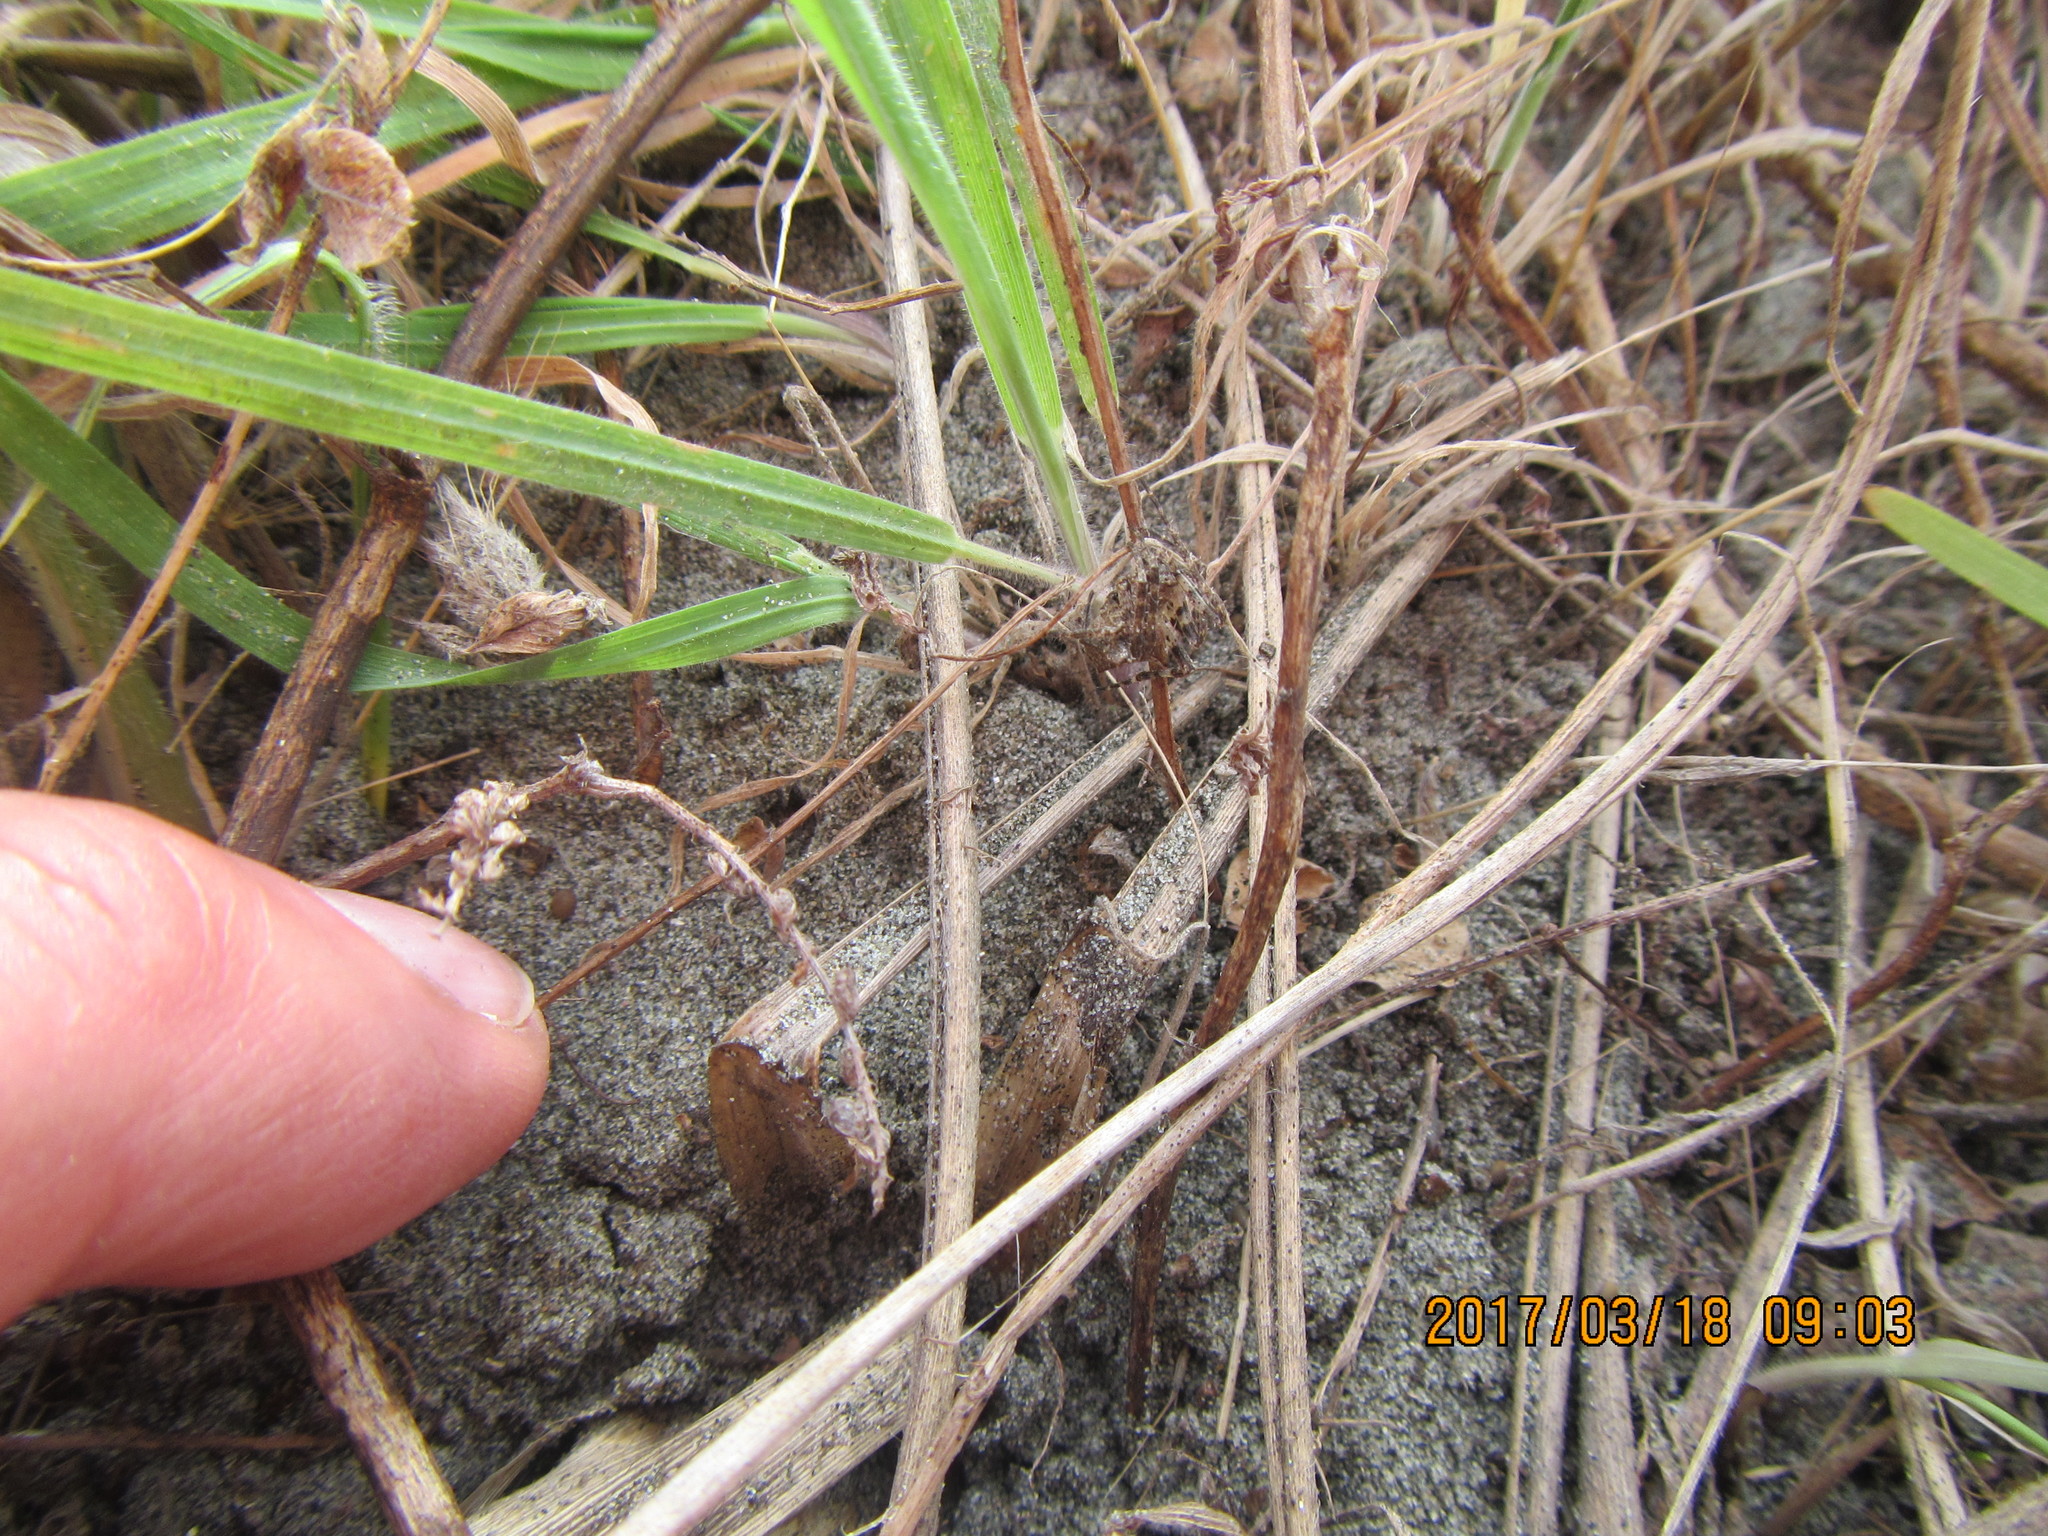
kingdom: Animalia
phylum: Arthropoda
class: Arachnida
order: Araneae
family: Araneidae
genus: Novakiella
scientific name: Novakiella trituberculosa
